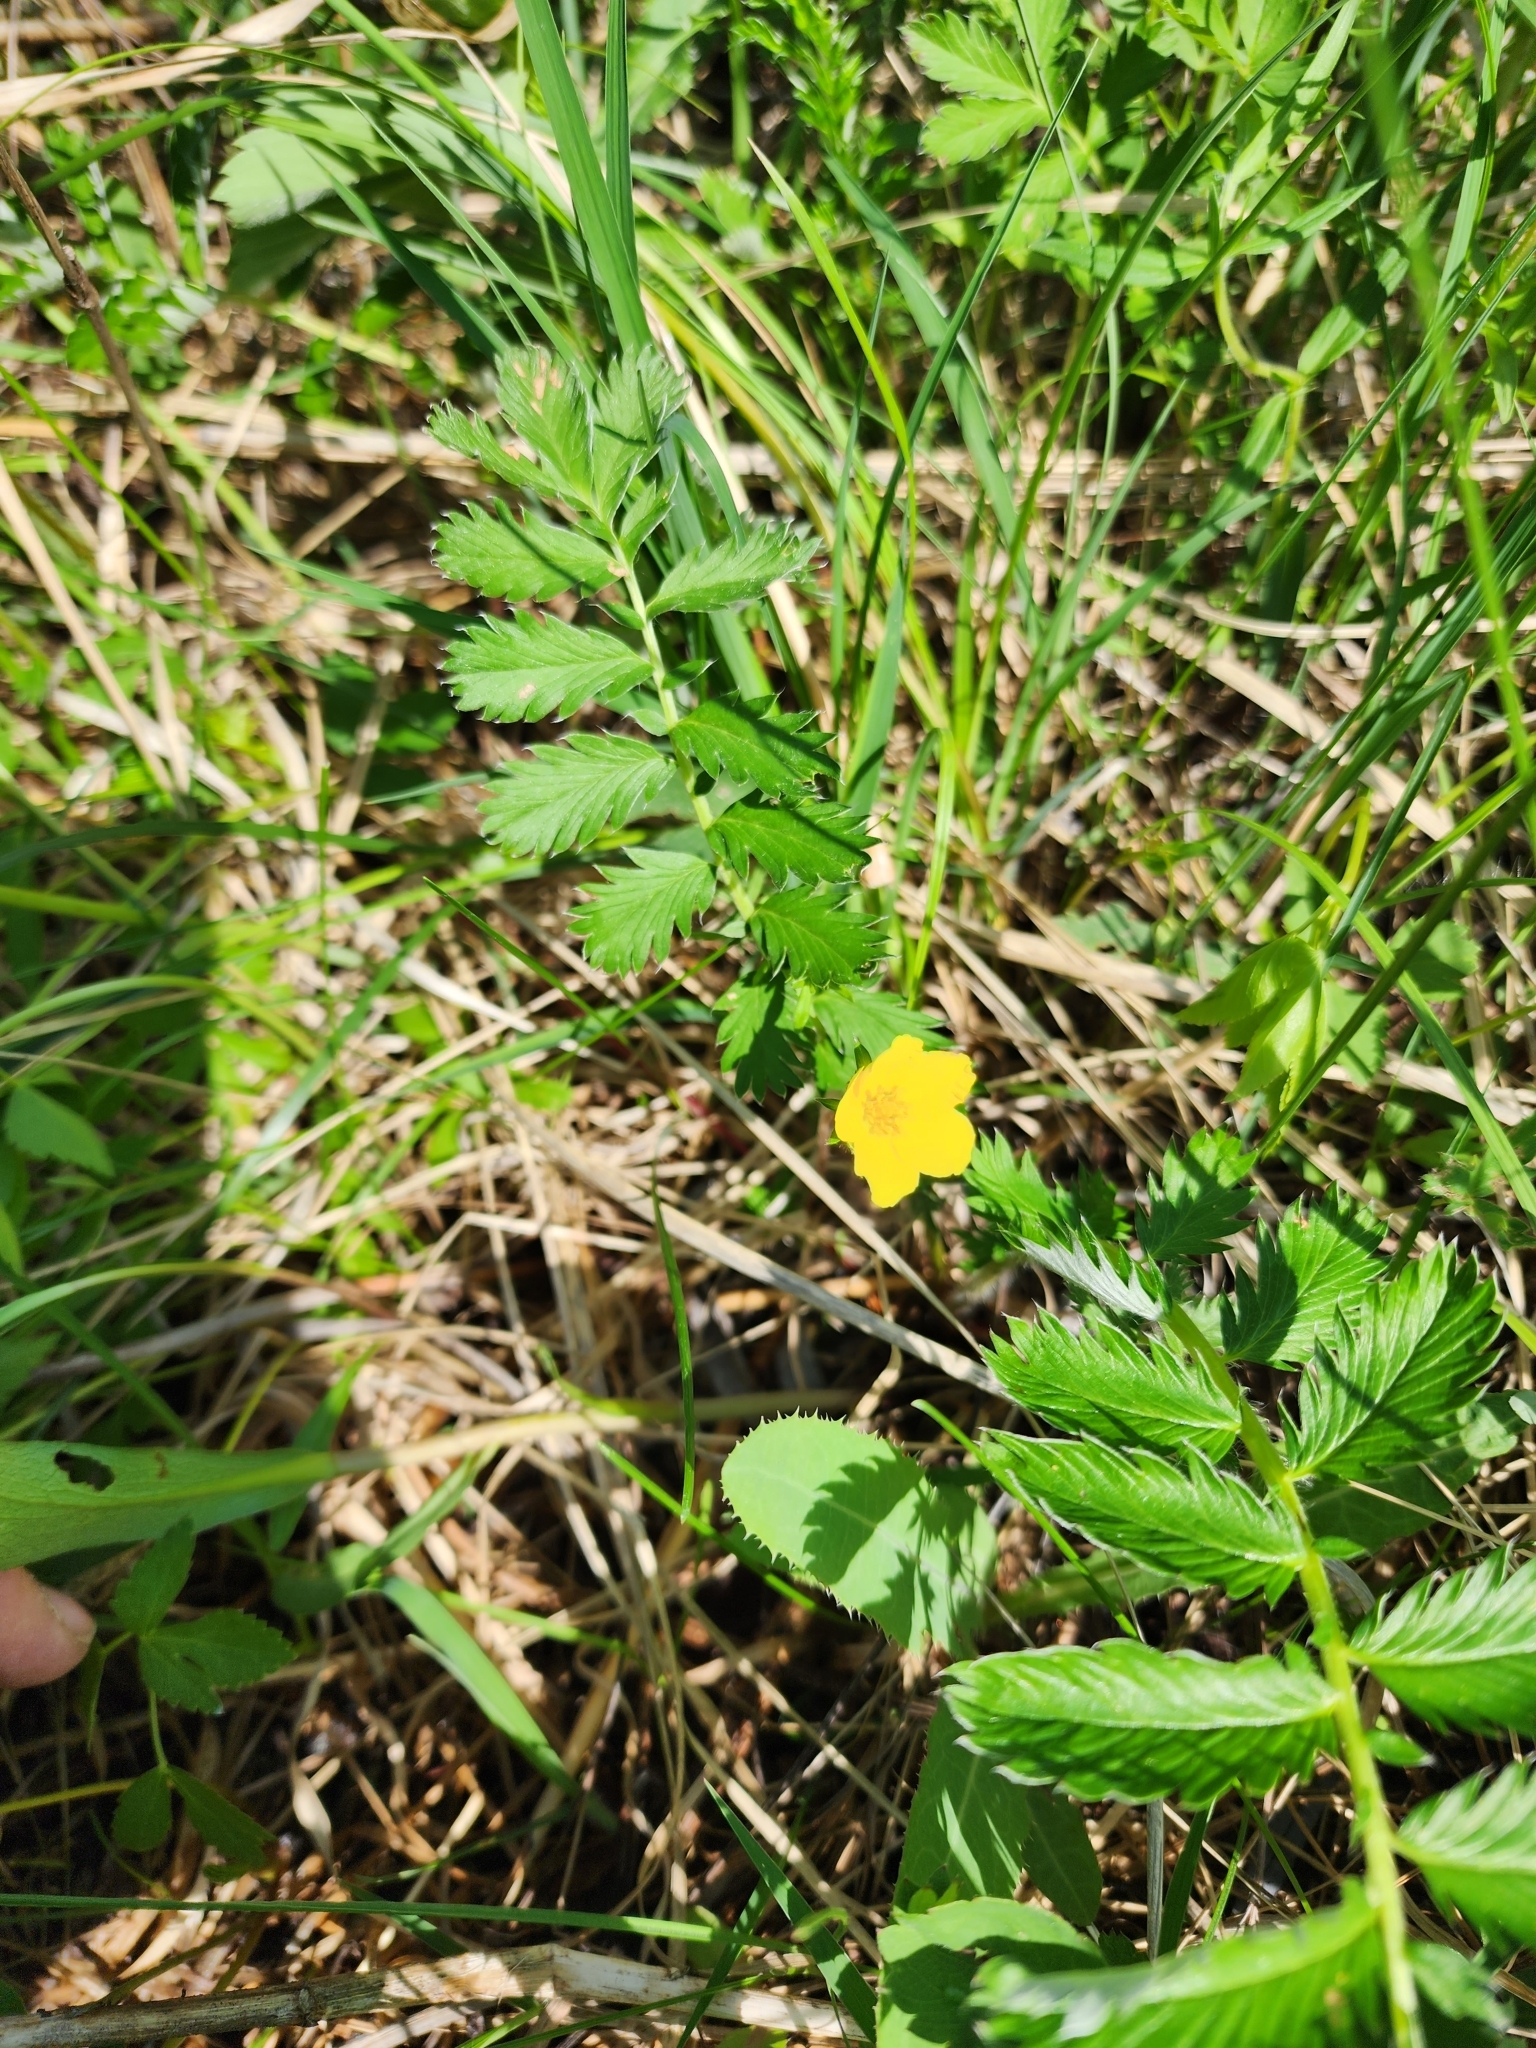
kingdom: Plantae
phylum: Tracheophyta
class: Magnoliopsida
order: Rosales
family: Rosaceae
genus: Argentina
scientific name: Argentina anserina
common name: Common silverweed
